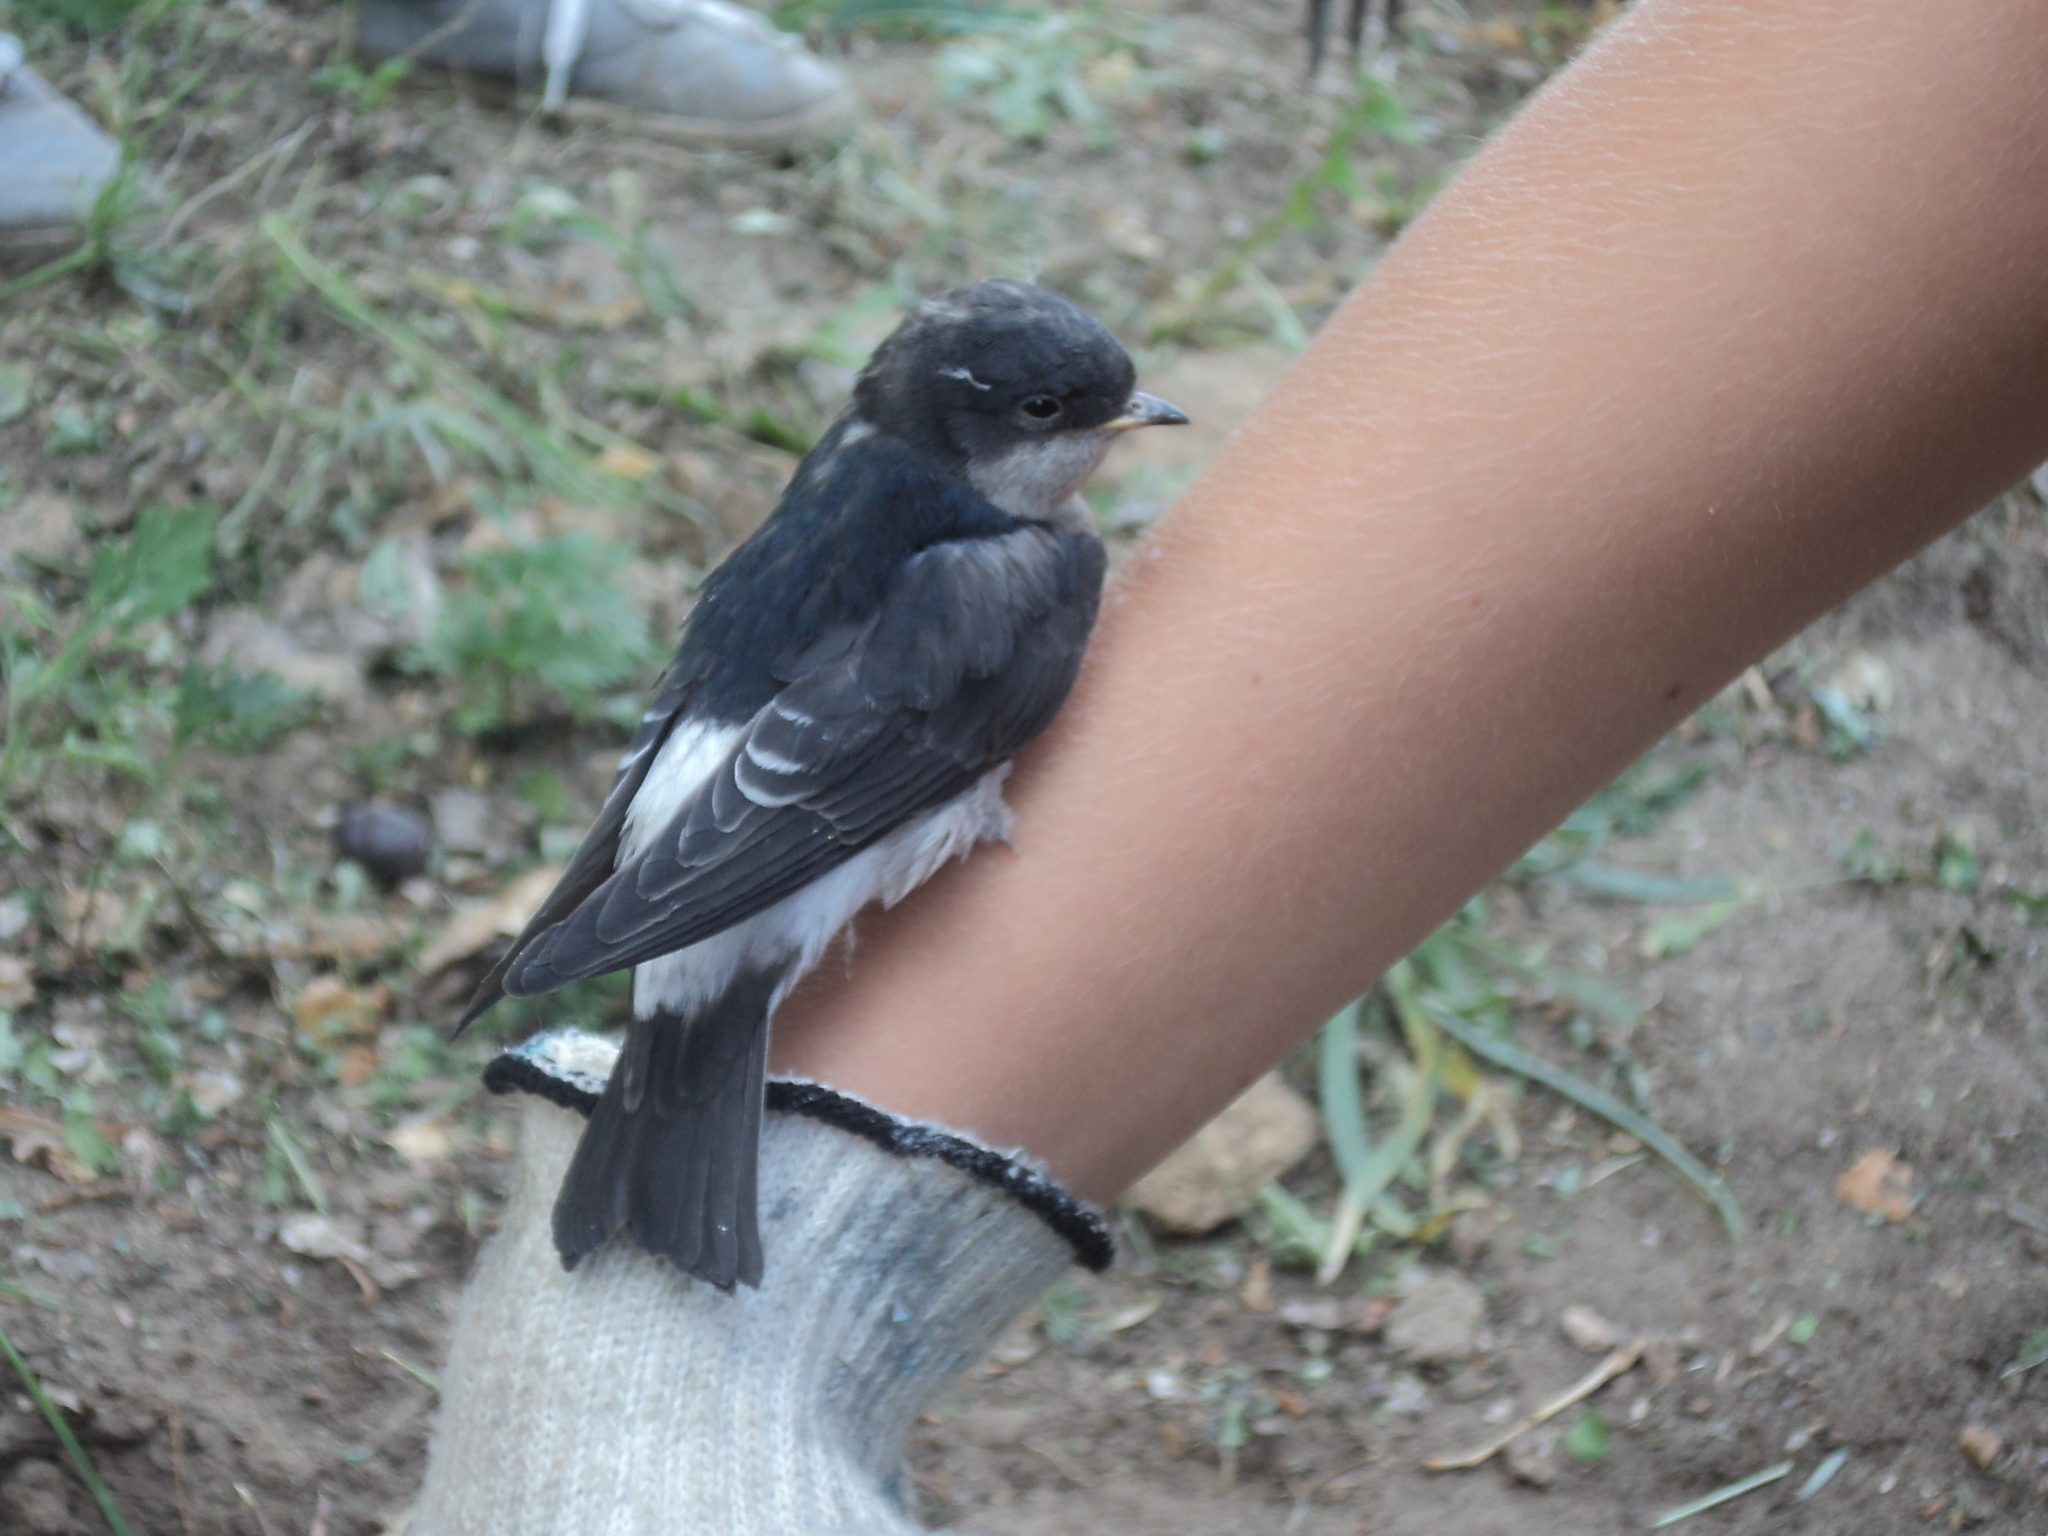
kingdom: Animalia
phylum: Chordata
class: Aves
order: Passeriformes
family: Hirundinidae
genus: Delichon
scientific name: Delichon urbicum
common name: Common house martin
